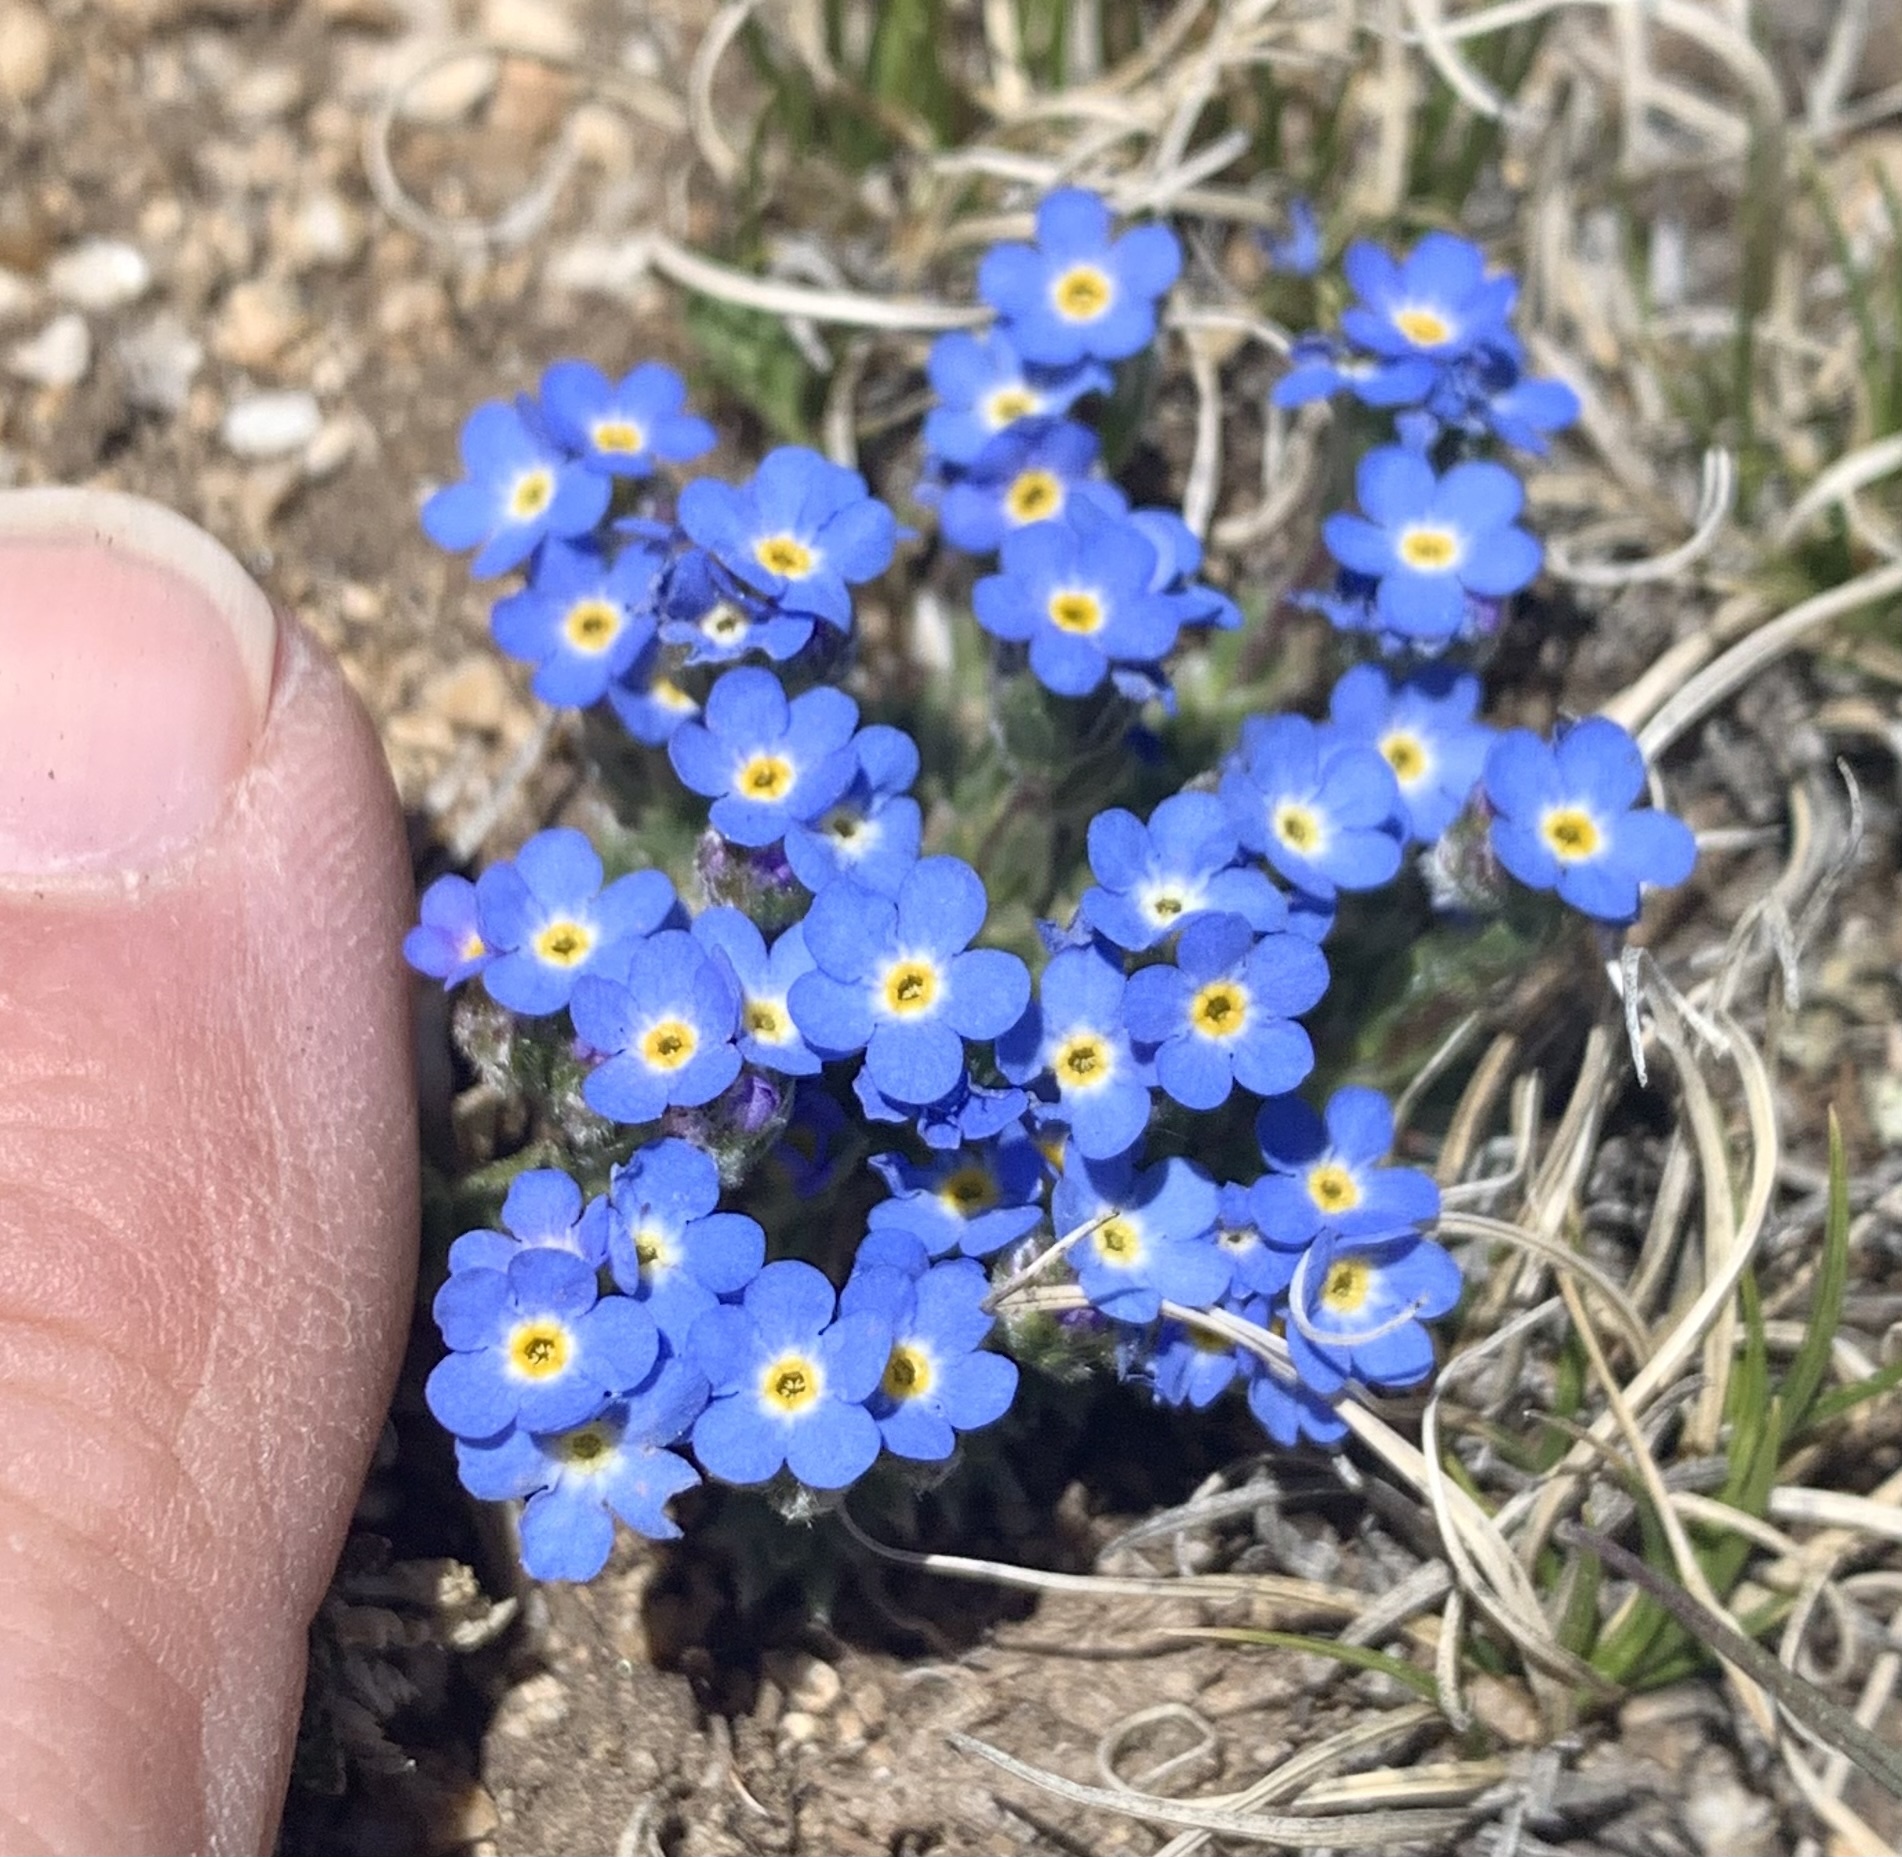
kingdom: Plantae
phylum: Tracheophyta
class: Magnoliopsida
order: Boraginales
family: Boraginaceae
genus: Eritrichium
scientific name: Eritrichium argenteum
